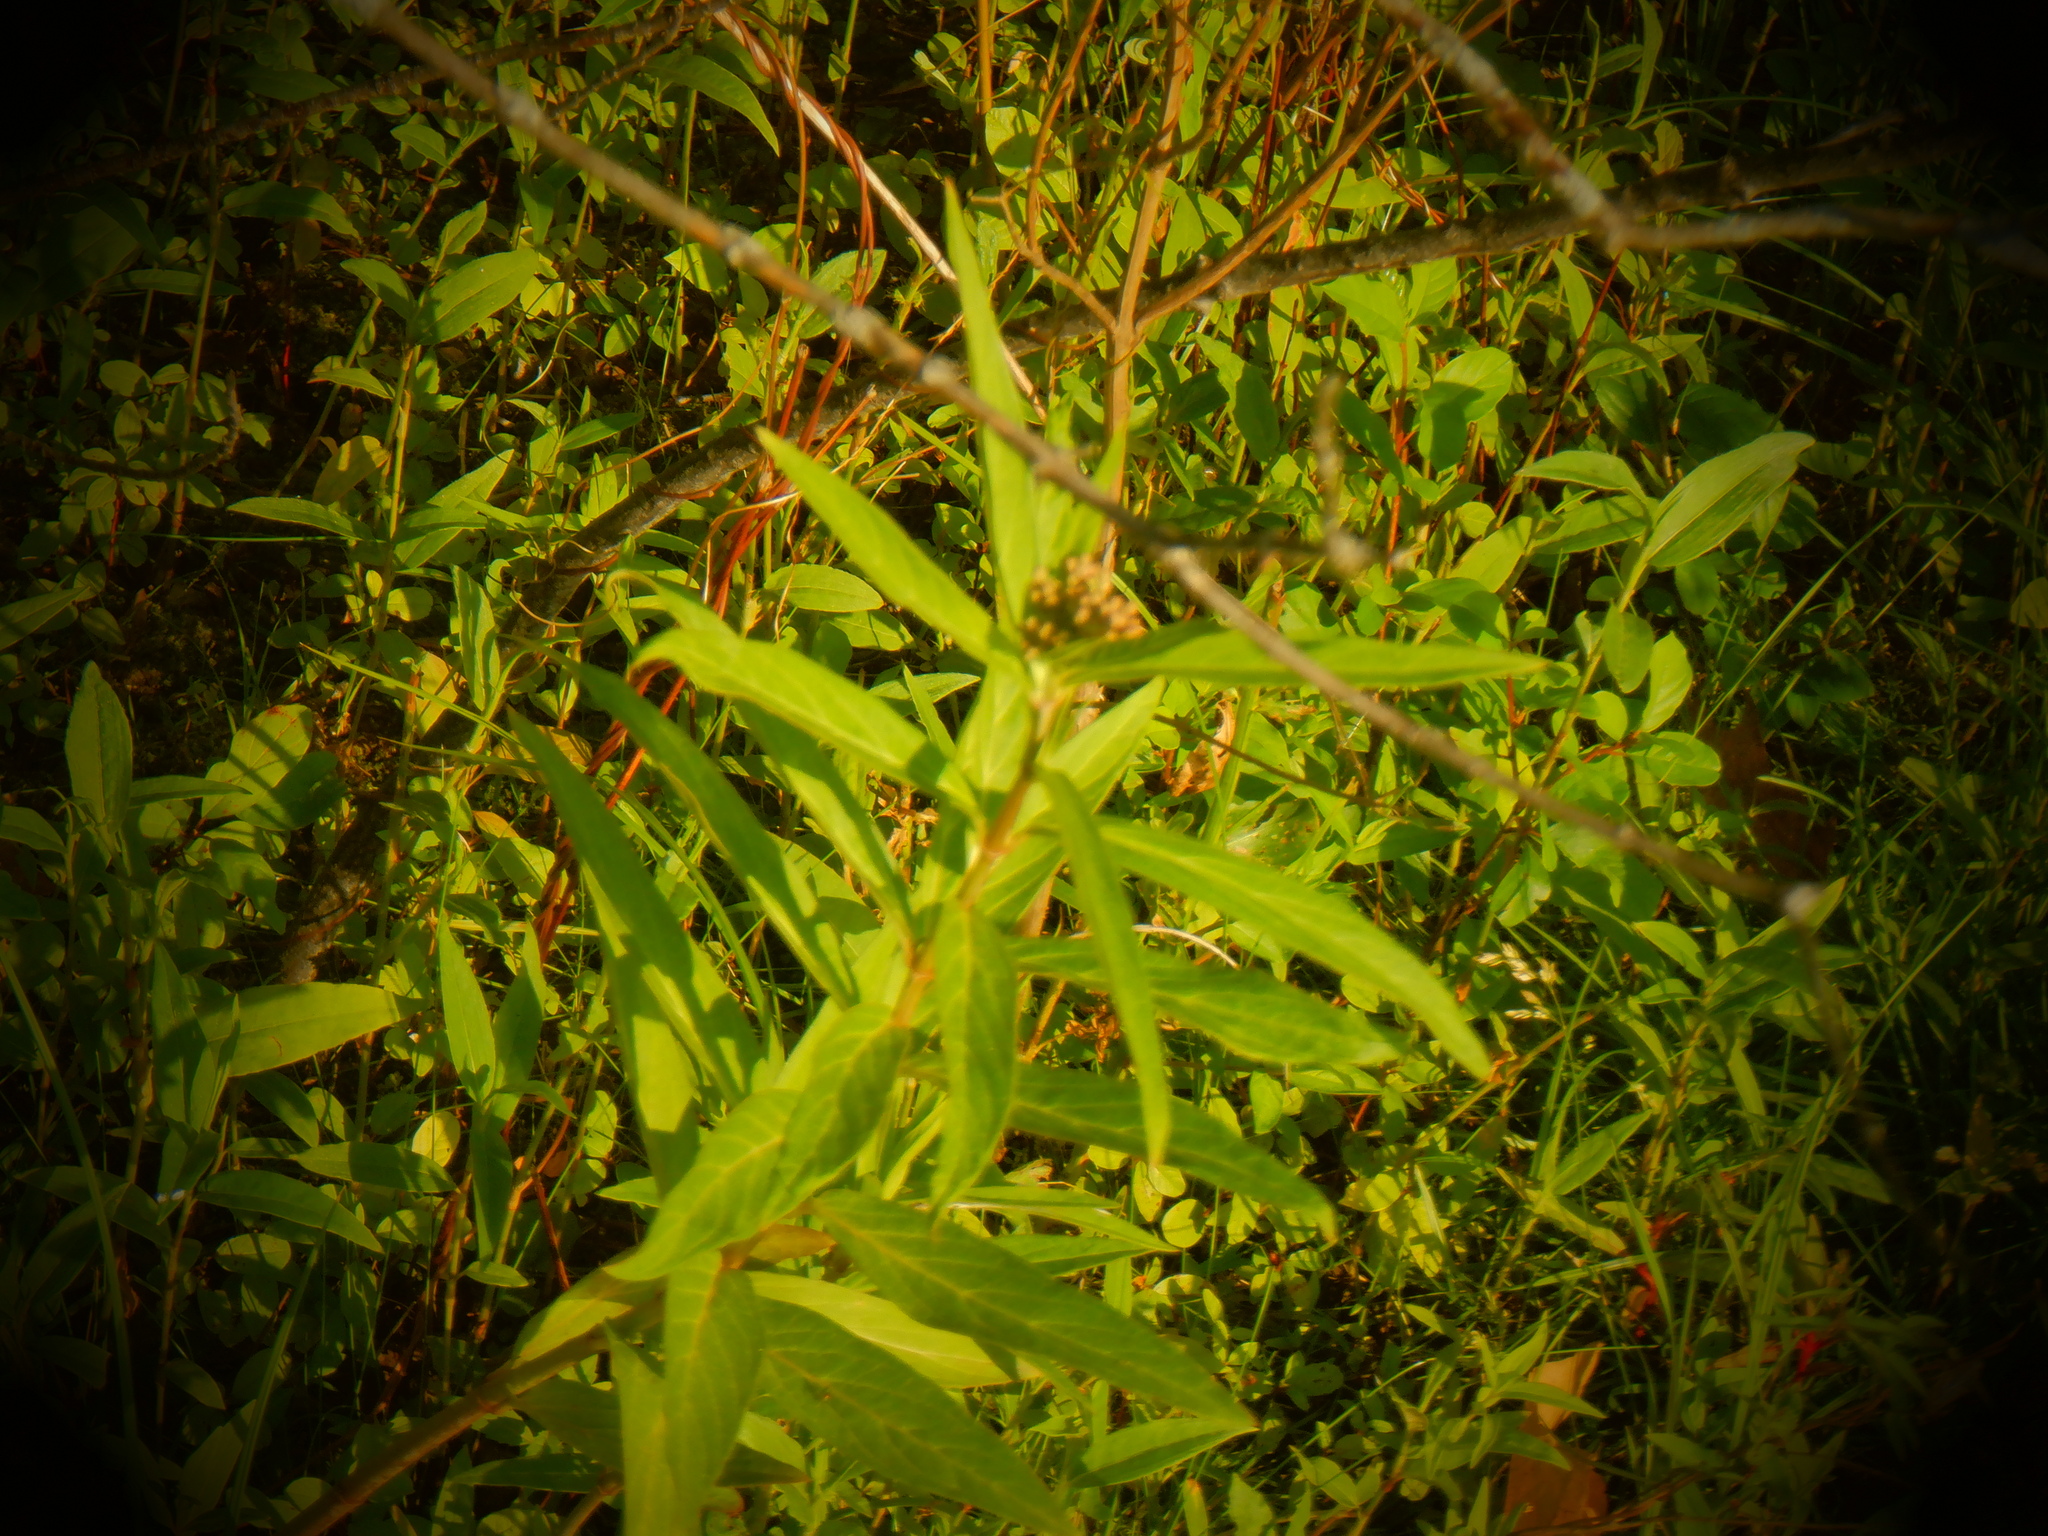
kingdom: Plantae
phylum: Tracheophyta
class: Magnoliopsida
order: Gentianales
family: Apocynaceae
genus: Asclepias
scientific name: Asclepias incarnata
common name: Swamp milkweed
